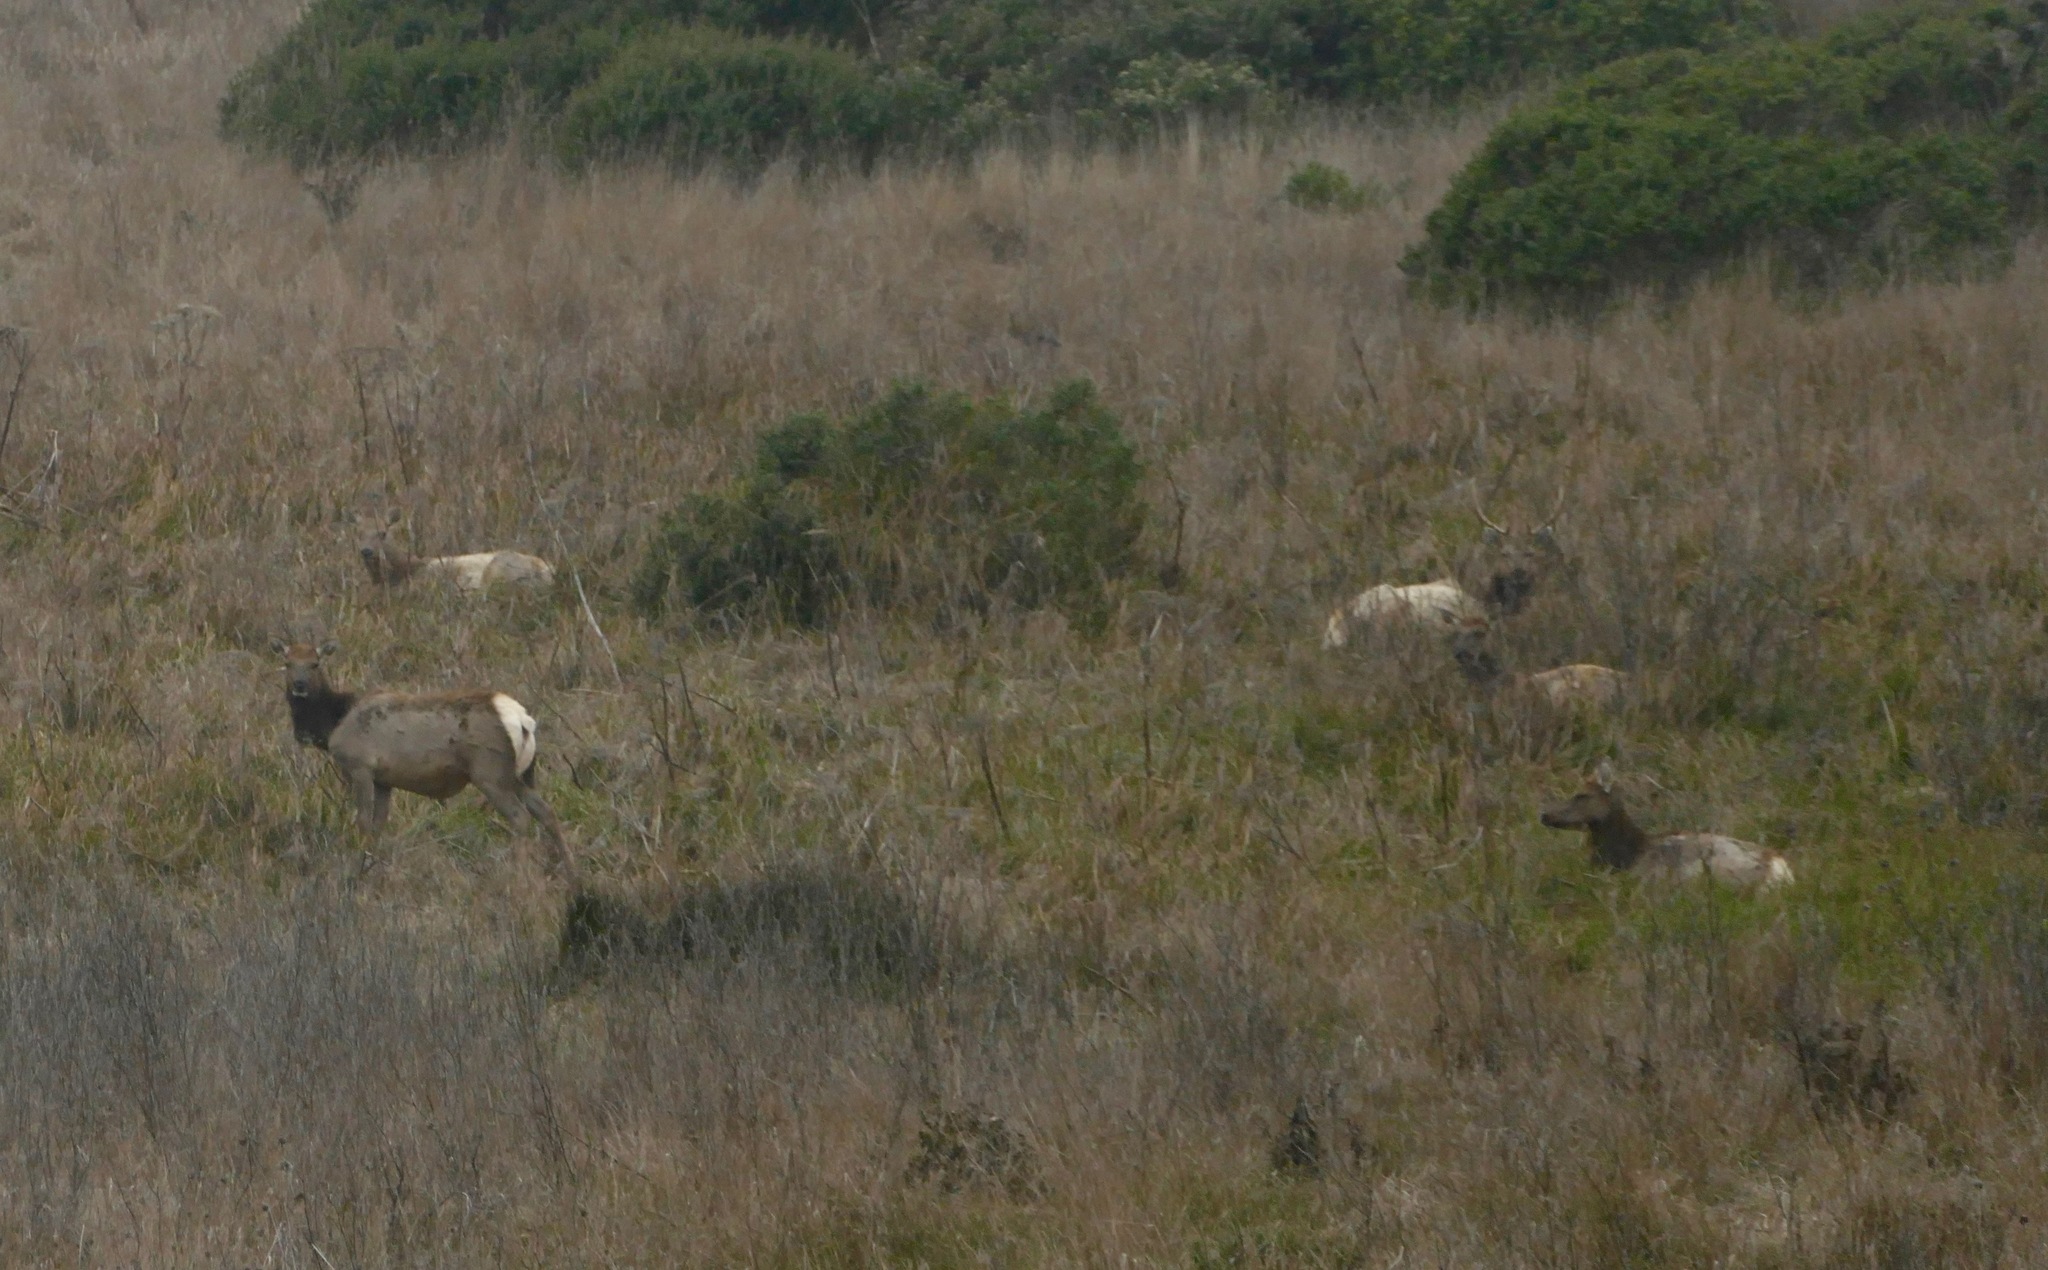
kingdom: Animalia
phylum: Chordata
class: Mammalia
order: Artiodactyla
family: Cervidae
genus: Cervus
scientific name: Cervus elaphus
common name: Red deer
